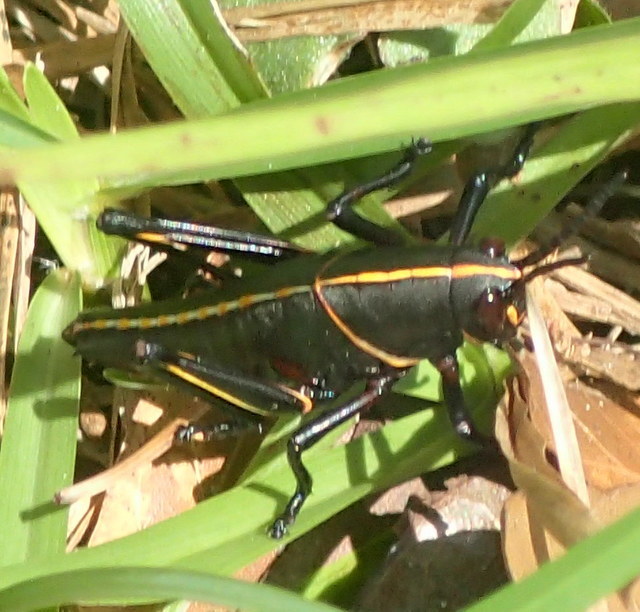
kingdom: Animalia
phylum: Arthropoda
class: Insecta
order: Orthoptera
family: Romaleidae
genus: Romalea
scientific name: Romalea microptera
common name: Eastern lubber grasshopper
